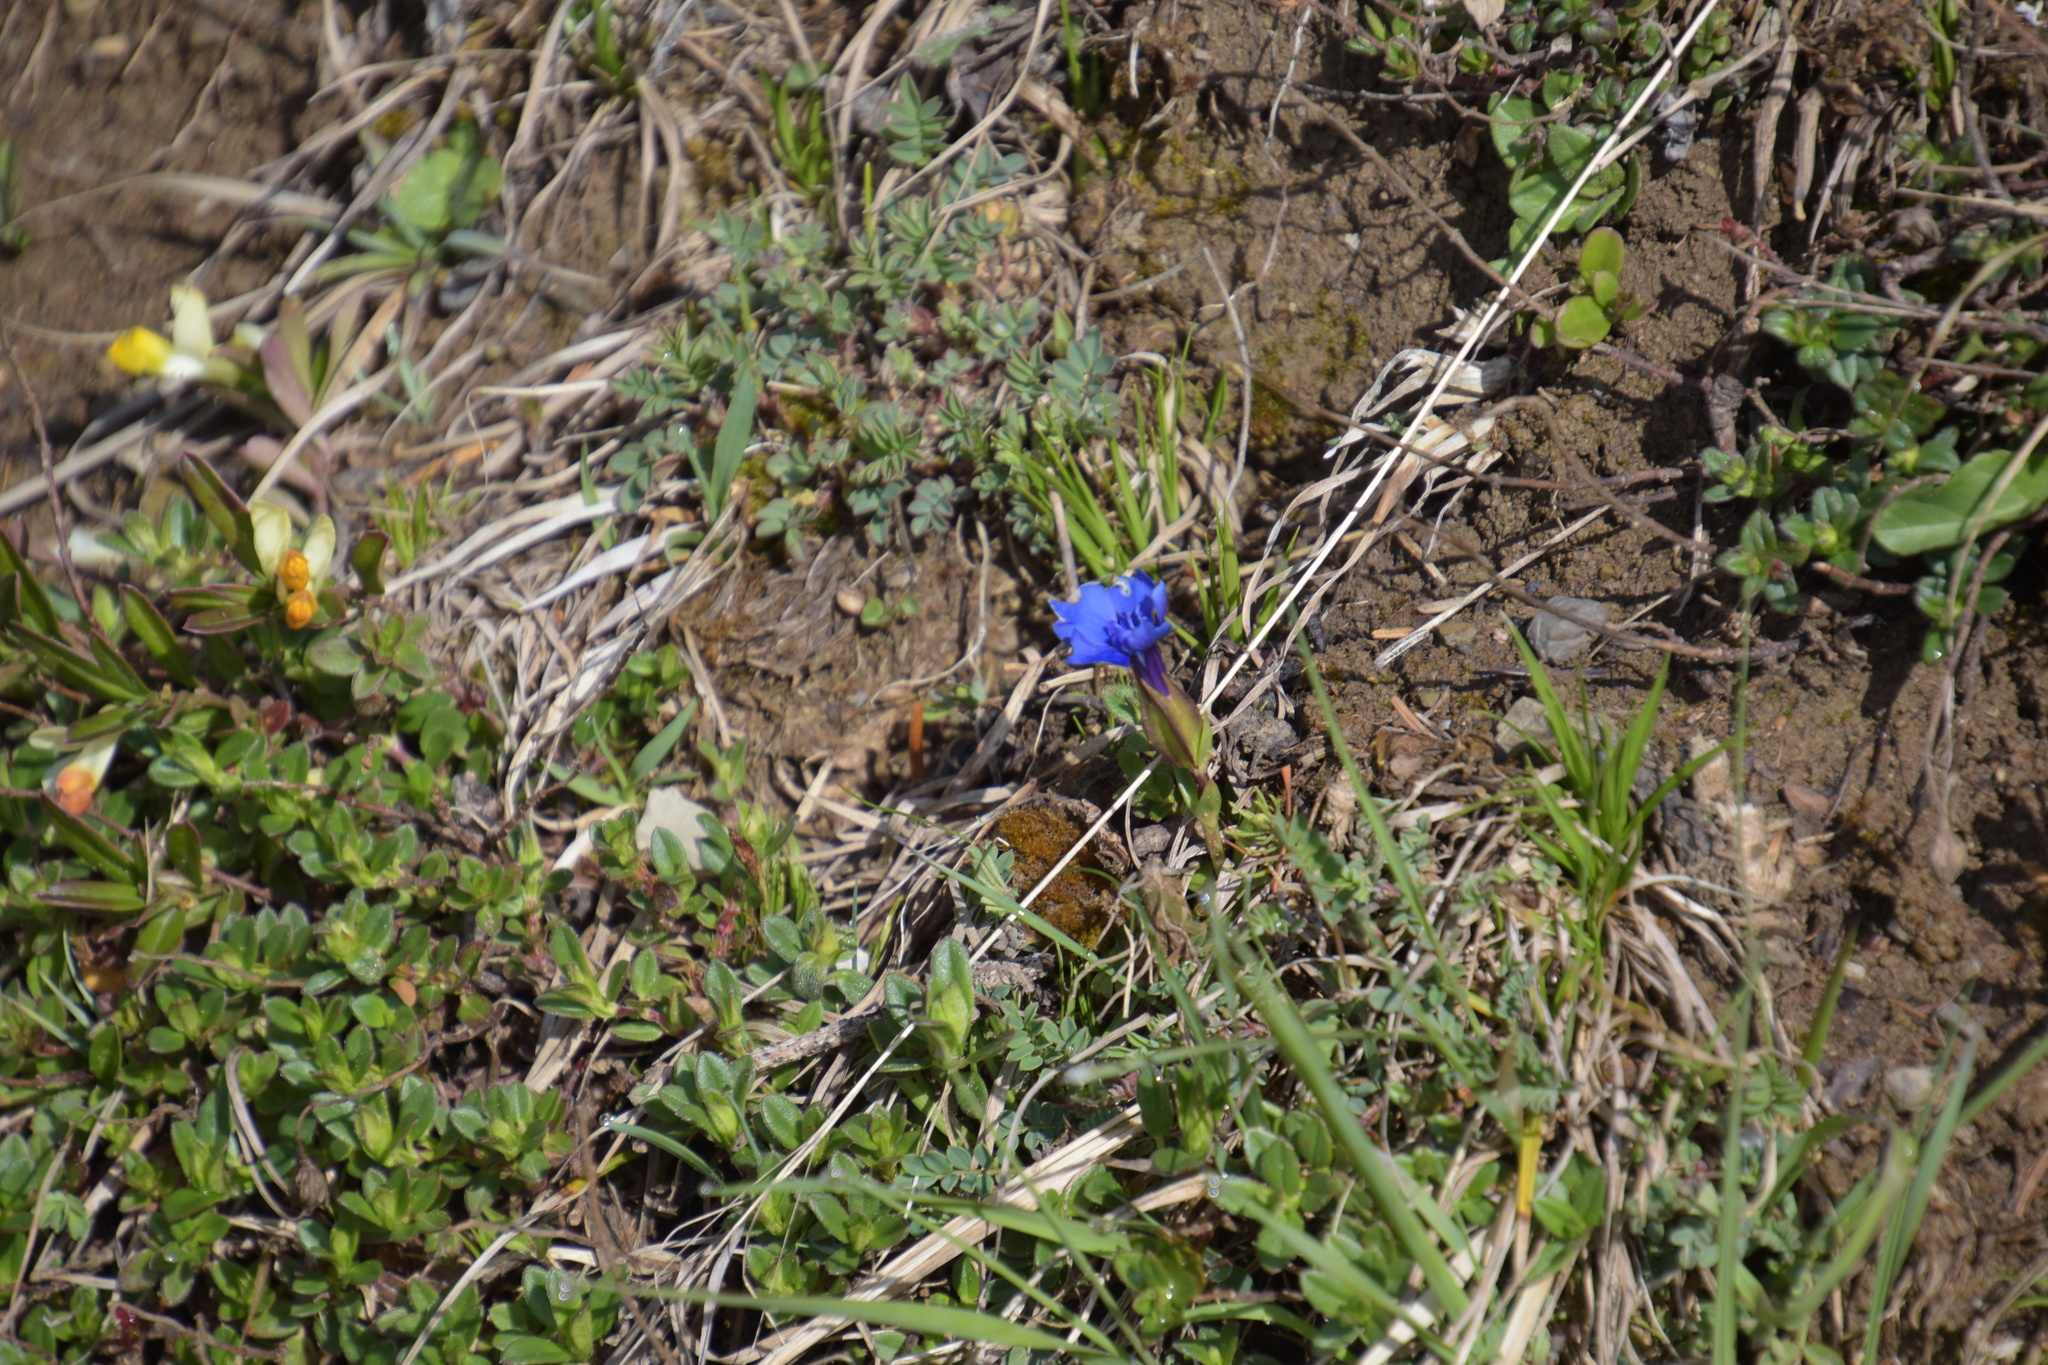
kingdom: Plantae
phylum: Tracheophyta
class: Magnoliopsida
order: Gentianales
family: Gentianaceae
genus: Gentiana
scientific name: Gentiana verna
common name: Spring gentian
